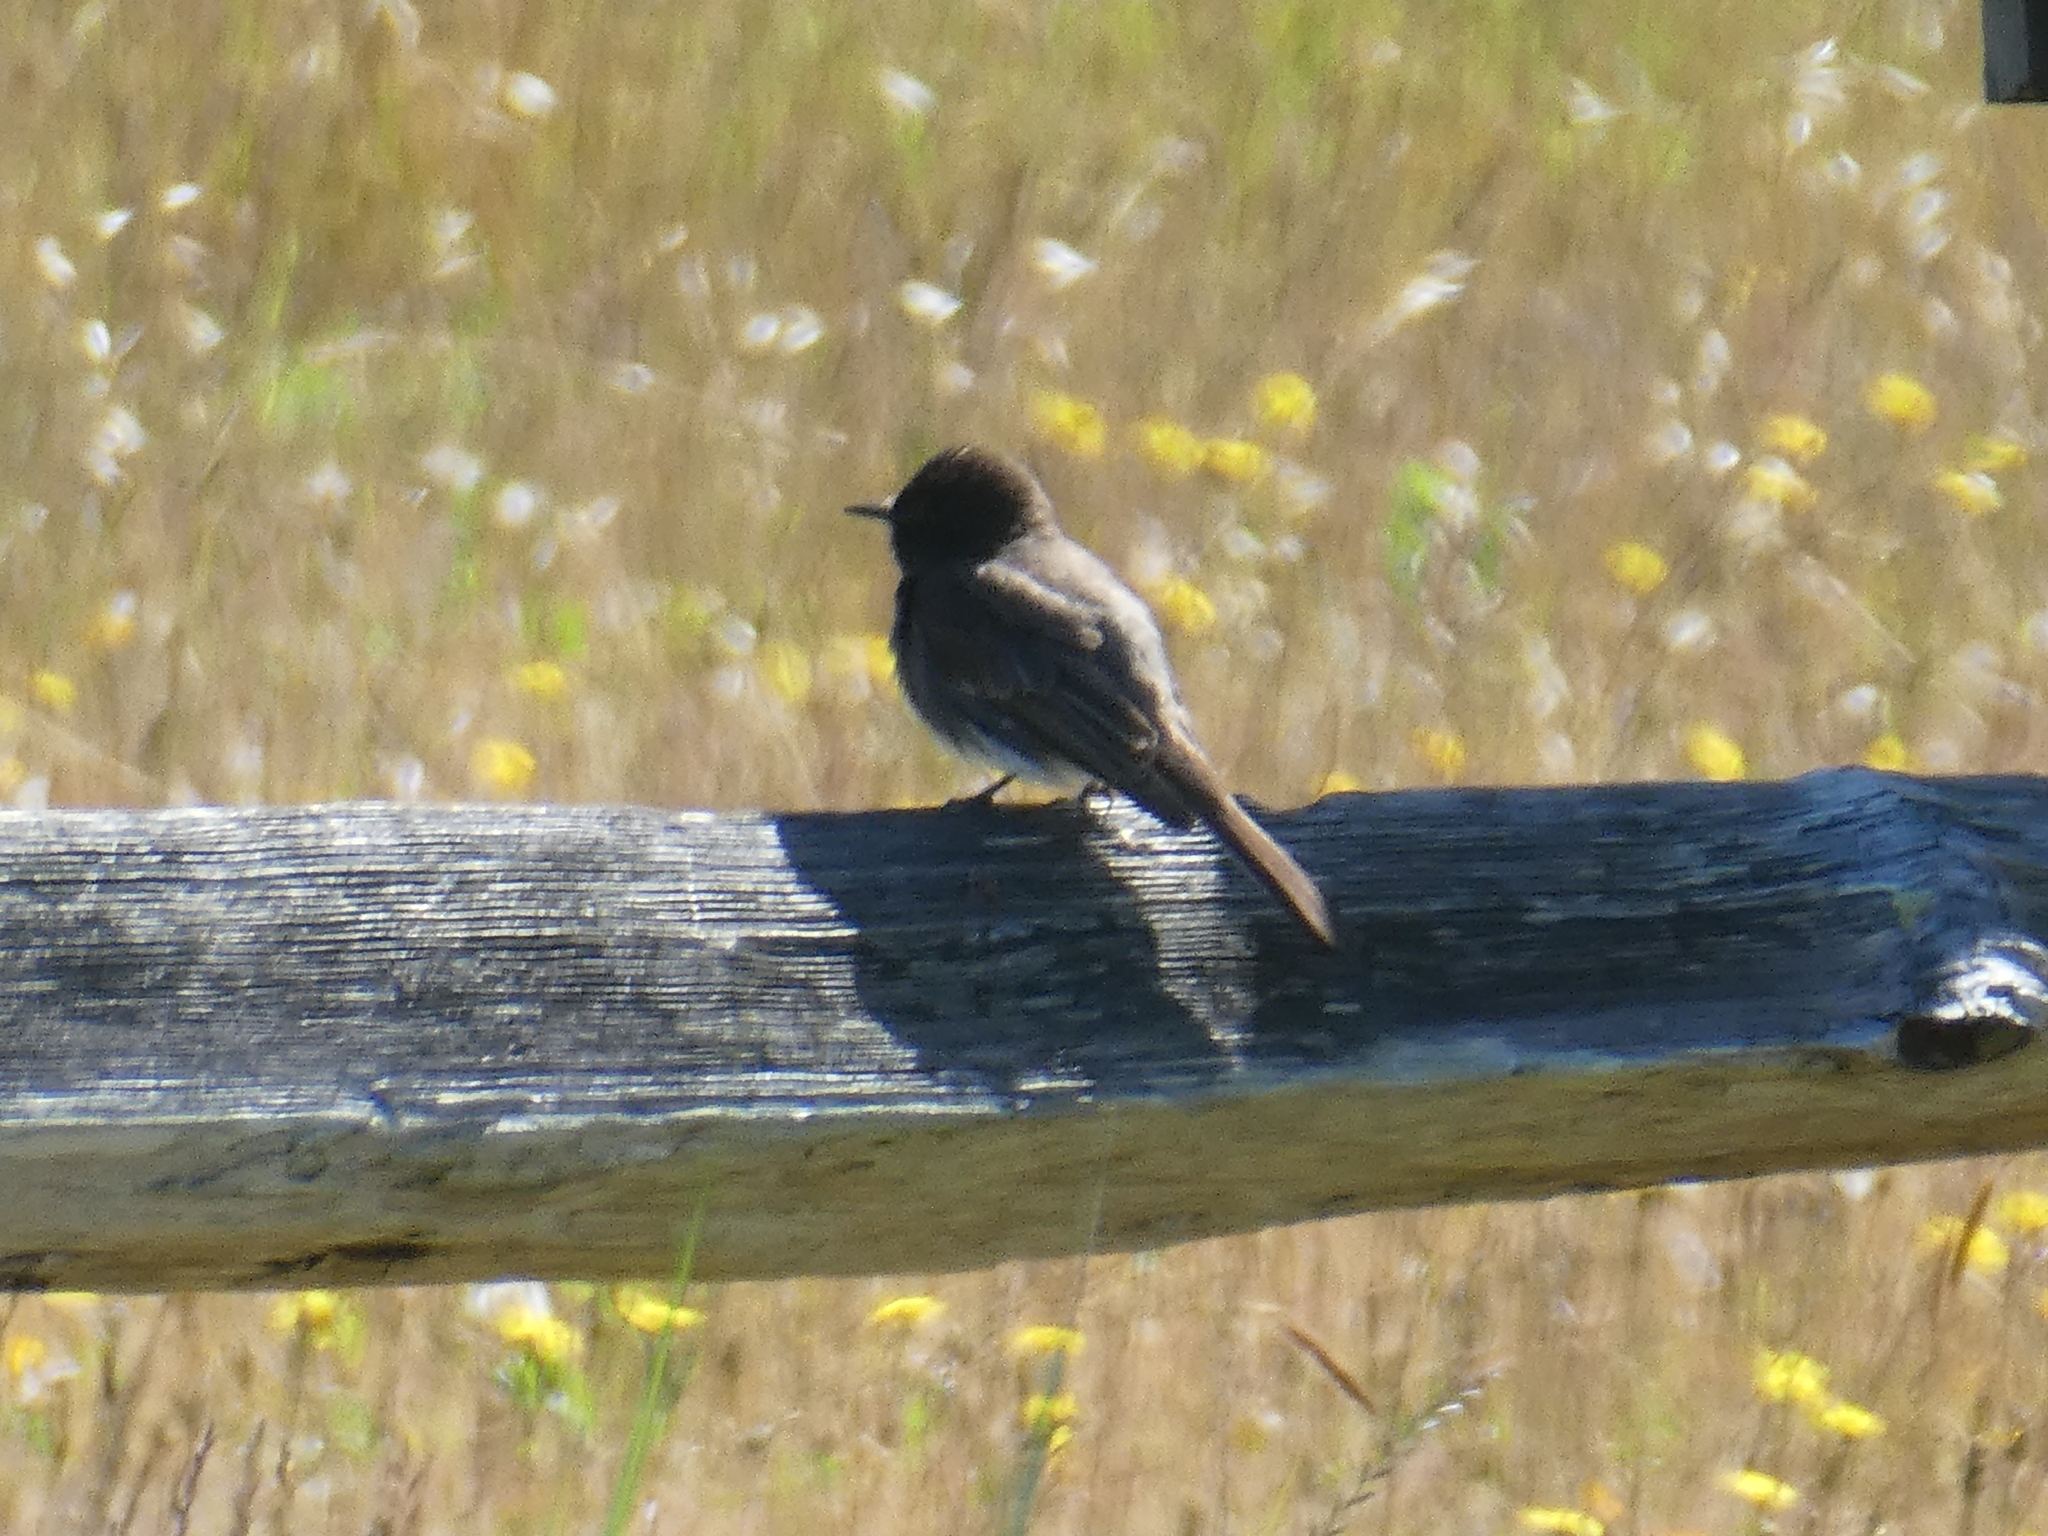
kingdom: Animalia
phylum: Chordata
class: Aves
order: Passeriformes
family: Tyrannidae
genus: Sayornis
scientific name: Sayornis nigricans
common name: Black phoebe
